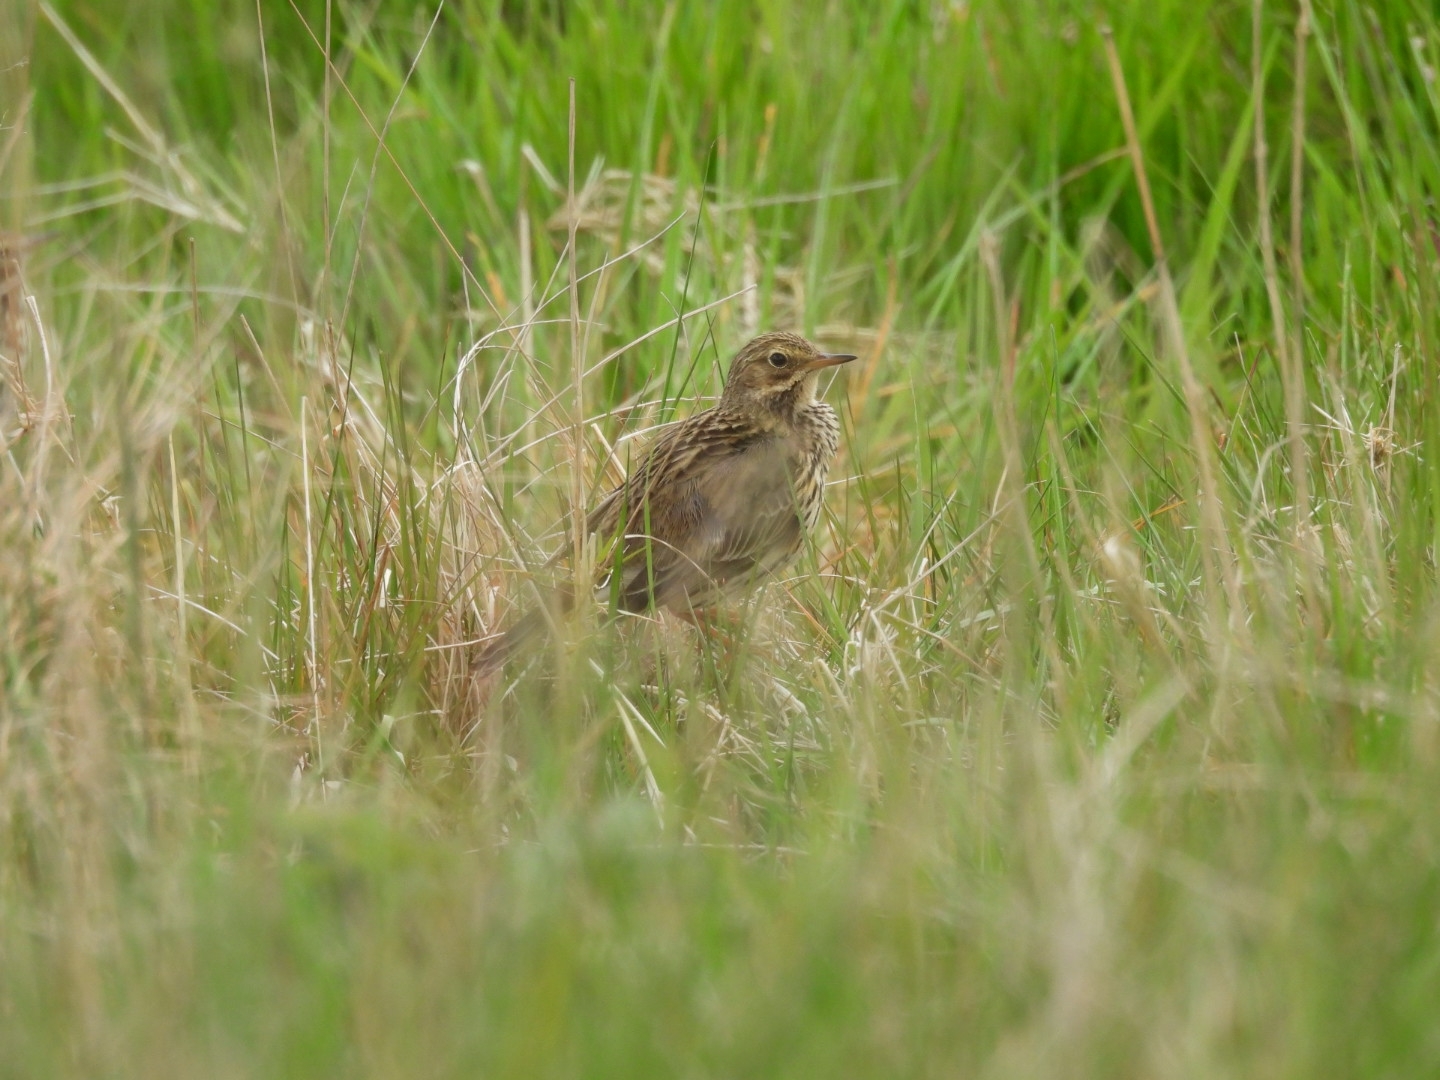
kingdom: Animalia
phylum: Chordata
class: Aves
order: Passeriformes
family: Motacillidae
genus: Anthus
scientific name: Anthus pratensis
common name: Meadow pipit
